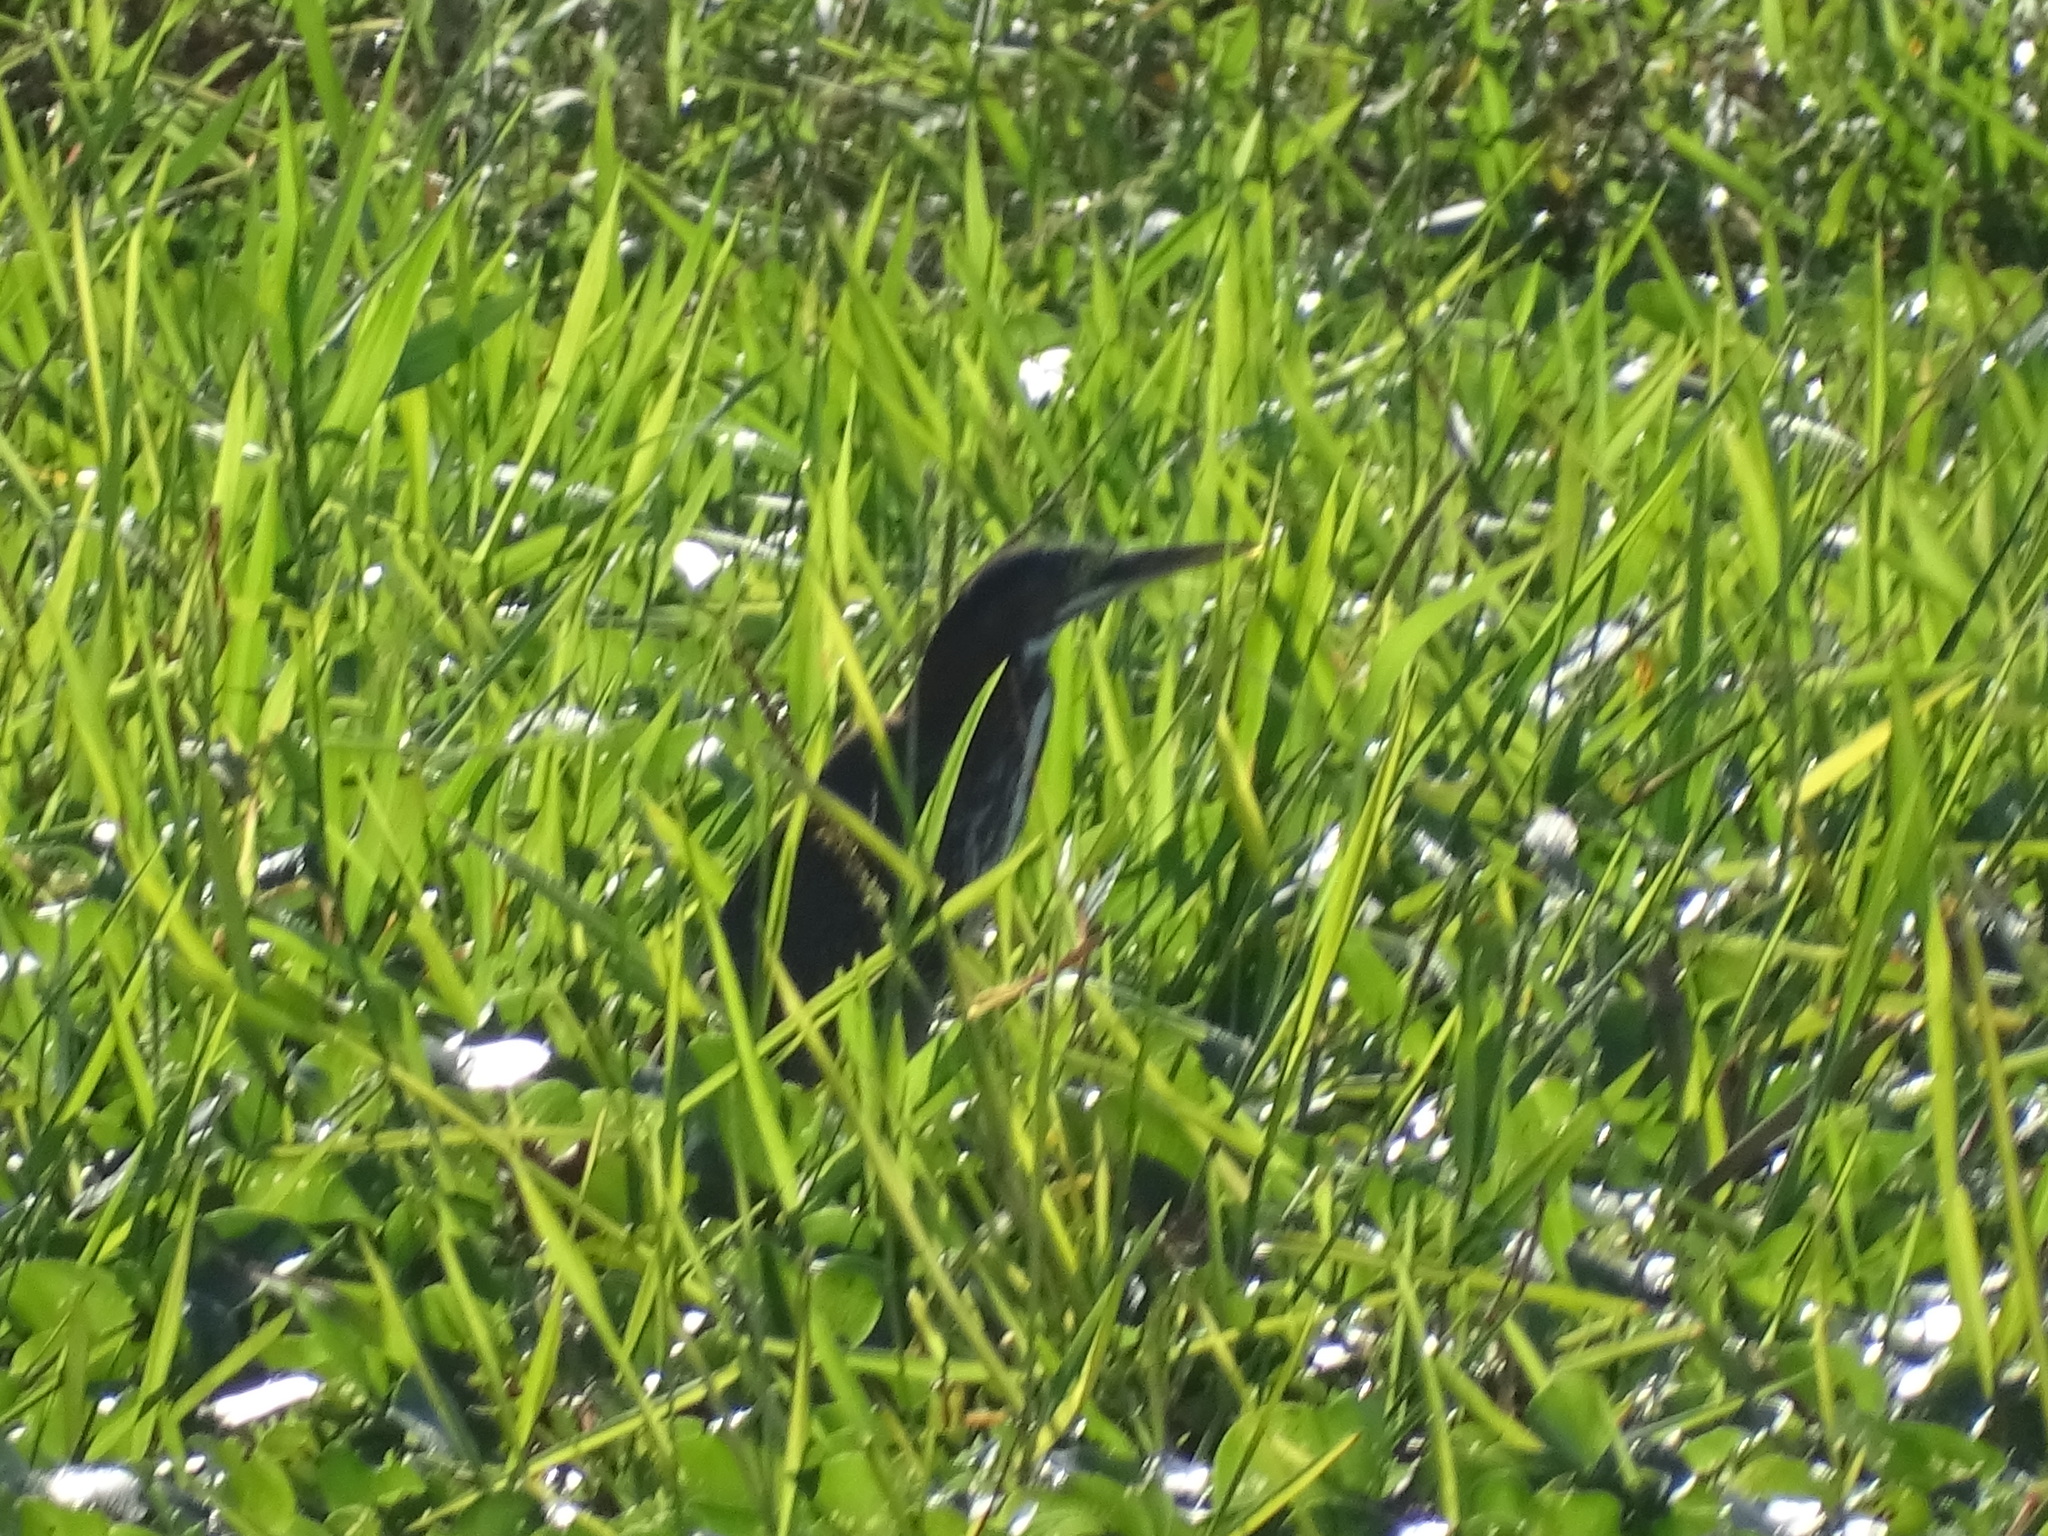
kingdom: Animalia
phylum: Chordata
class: Aves
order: Pelecaniformes
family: Ardeidae
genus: Butorides
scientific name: Butorides virescens
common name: Green heron
